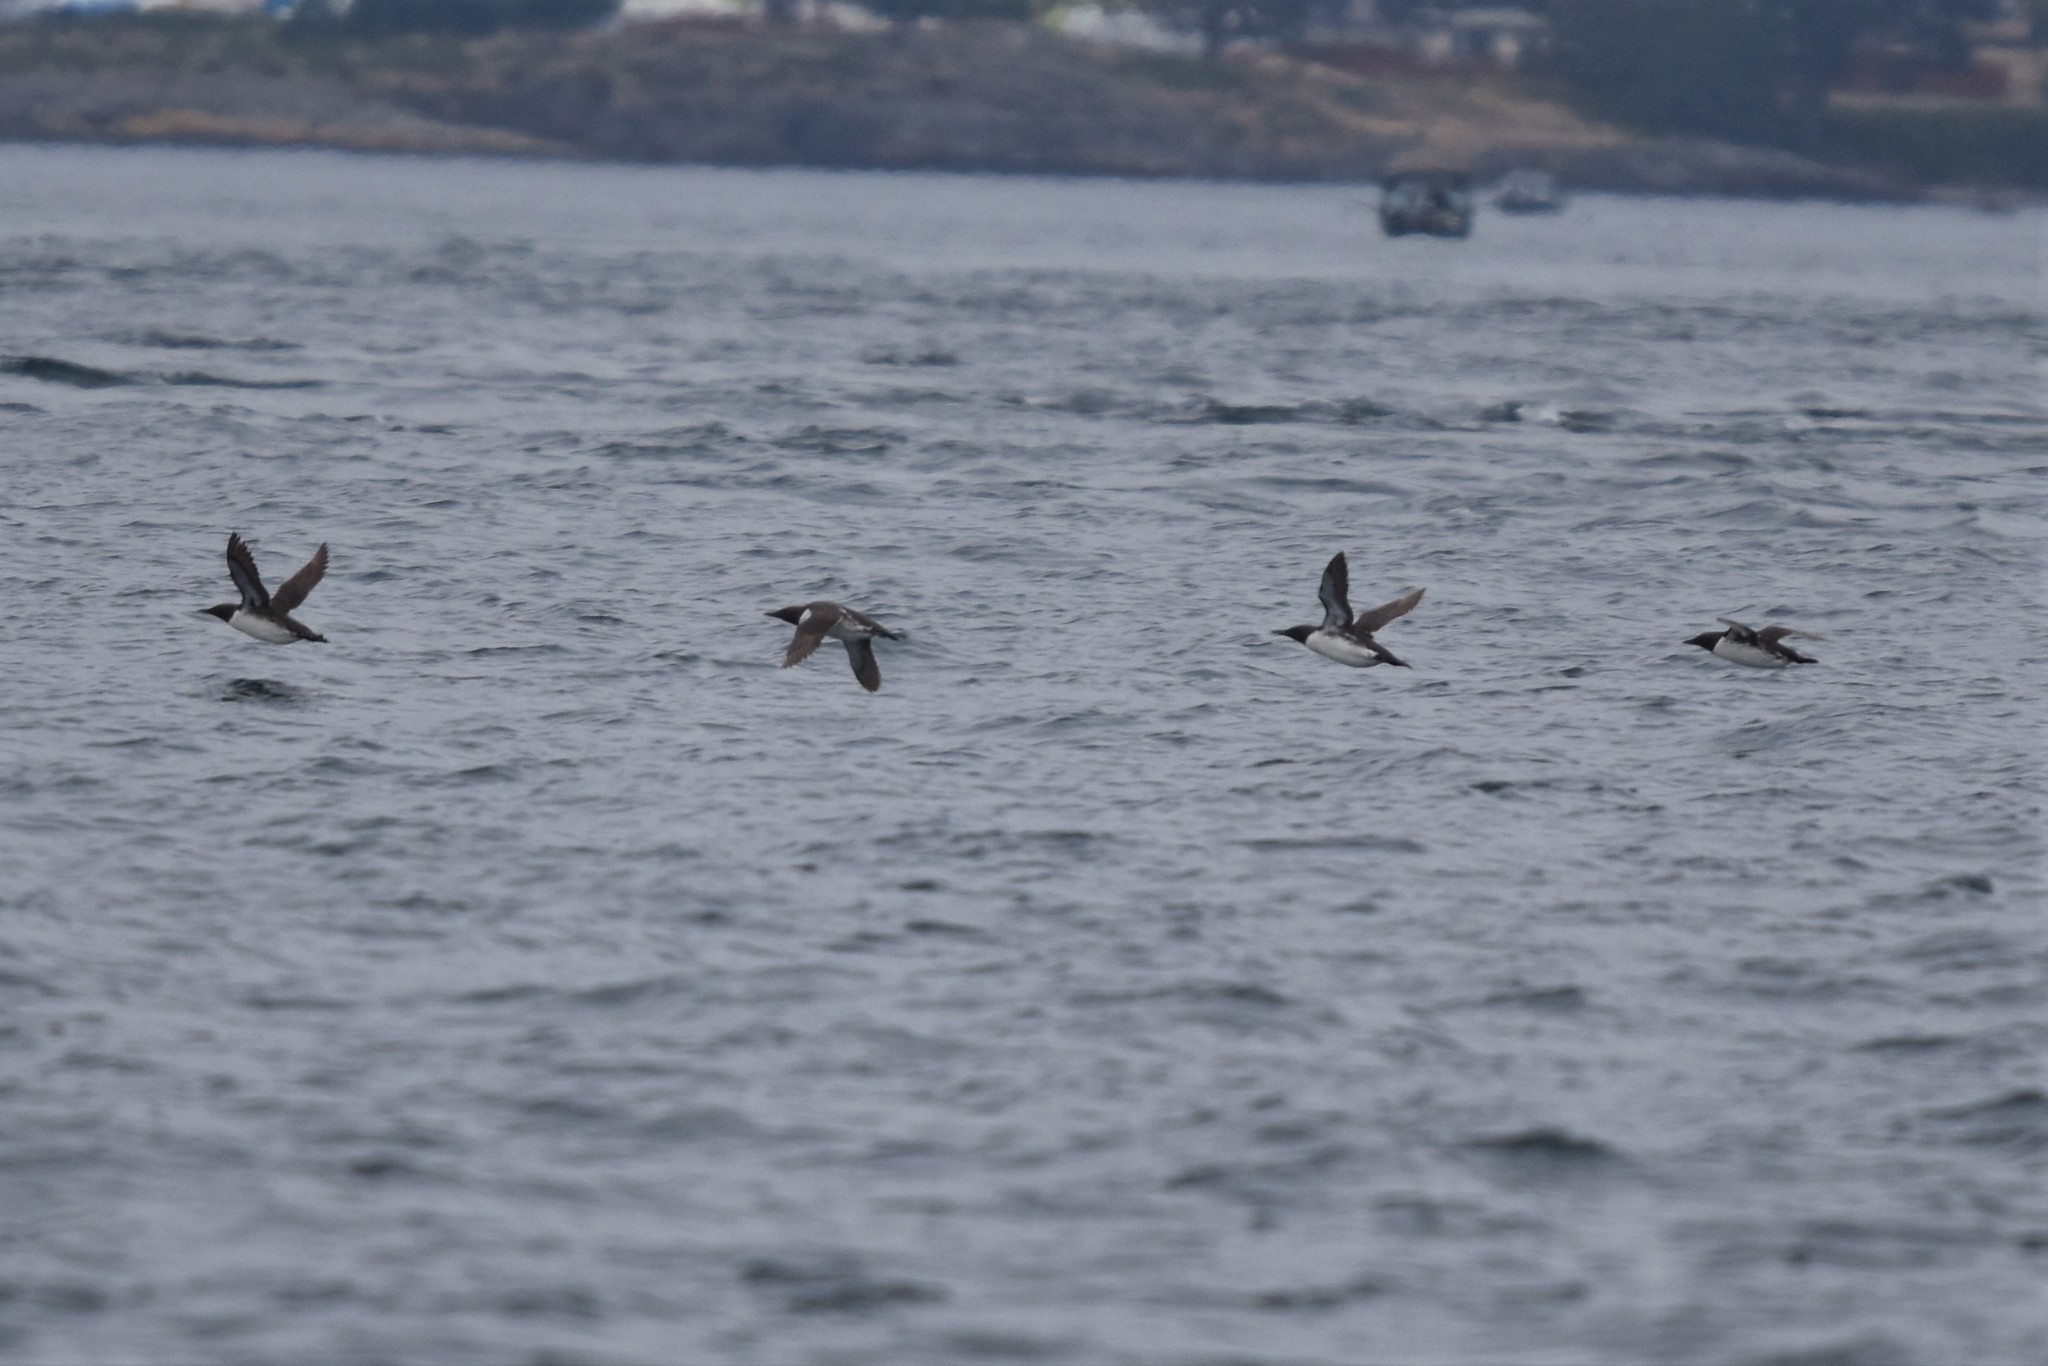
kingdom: Animalia
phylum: Chordata
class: Aves
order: Charadriiformes
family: Alcidae
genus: Uria
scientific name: Uria aalge
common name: Common murre
